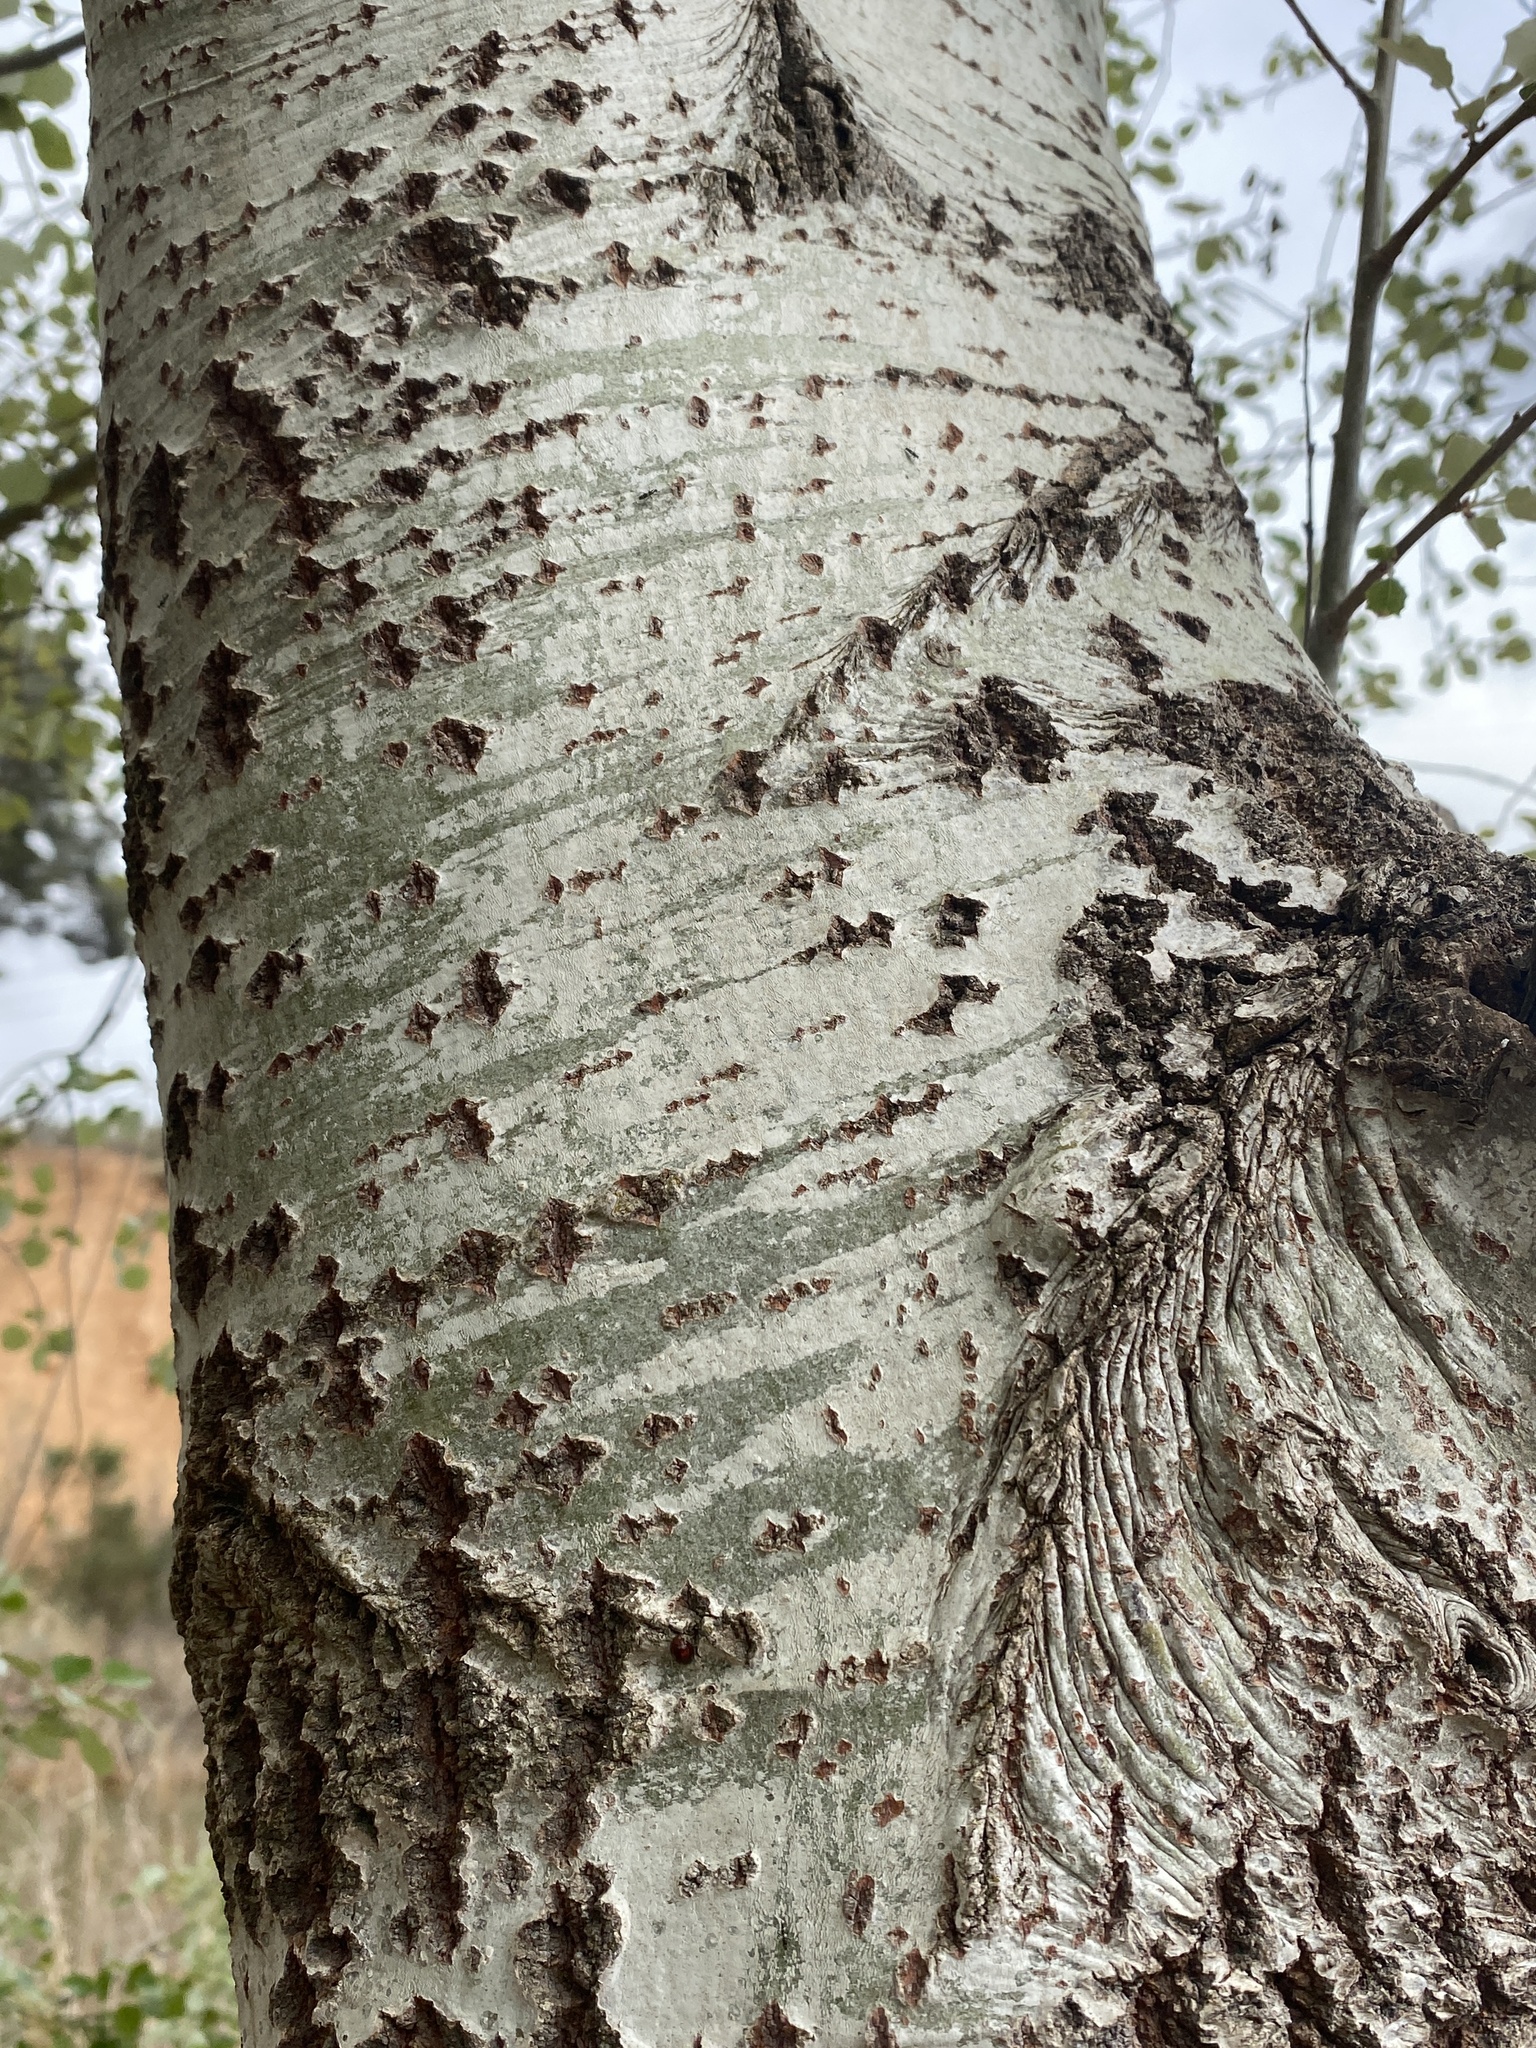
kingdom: Plantae
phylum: Tracheophyta
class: Magnoliopsida
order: Malpighiales
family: Salicaceae
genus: Populus
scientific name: Populus alba
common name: White poplar
